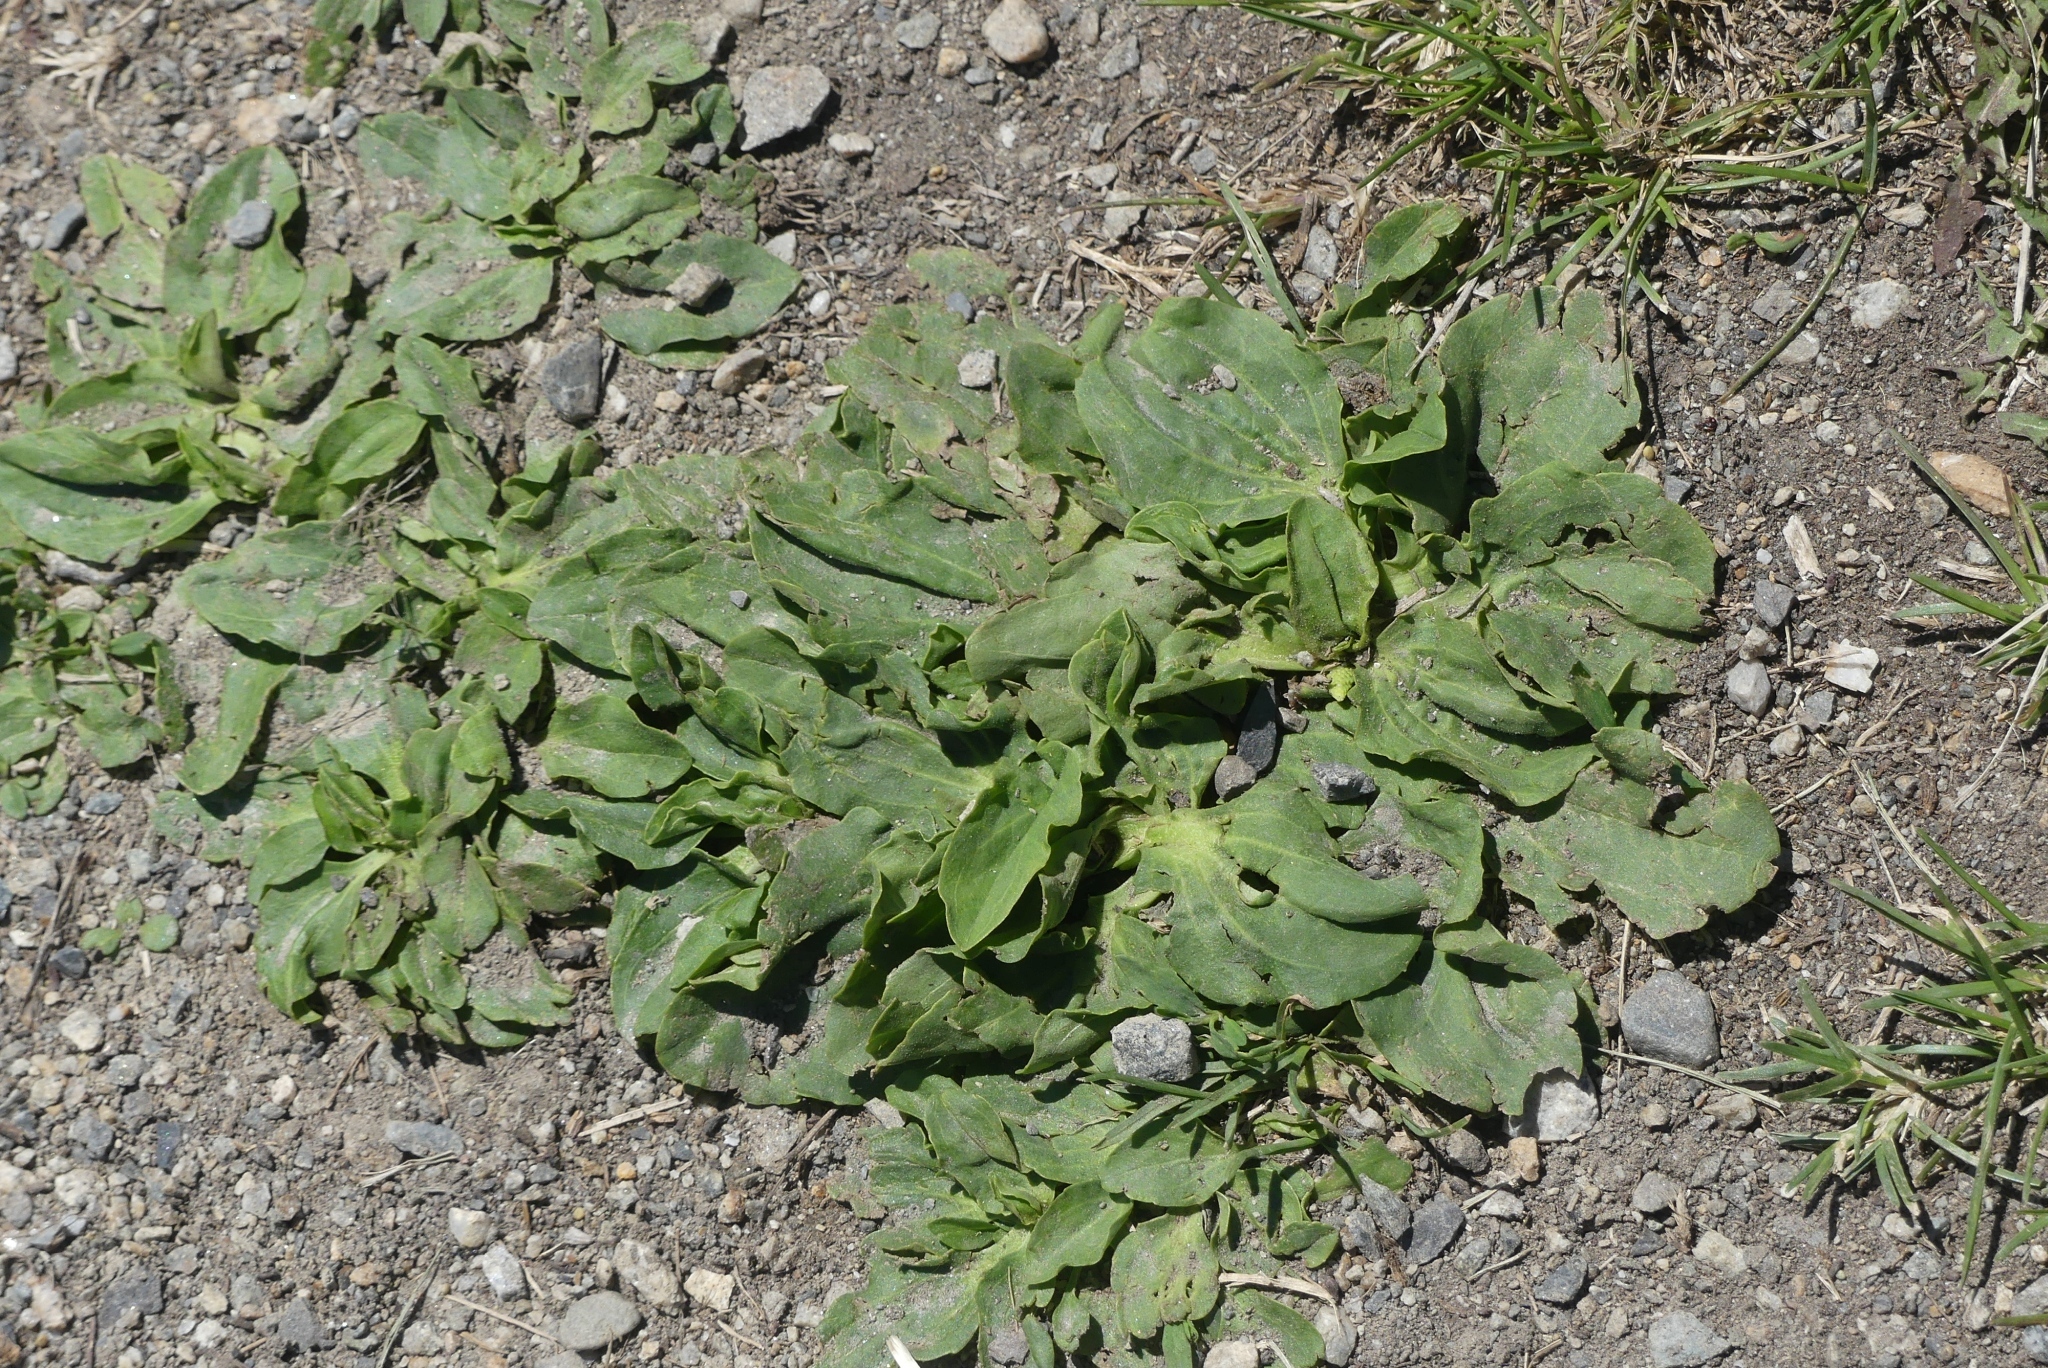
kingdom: Plantae
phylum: Tracheophyta
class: Magnoliopsida
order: Lamiales
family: Plantaginaceae
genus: Plantago
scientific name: Plantago major
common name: Common plantain
